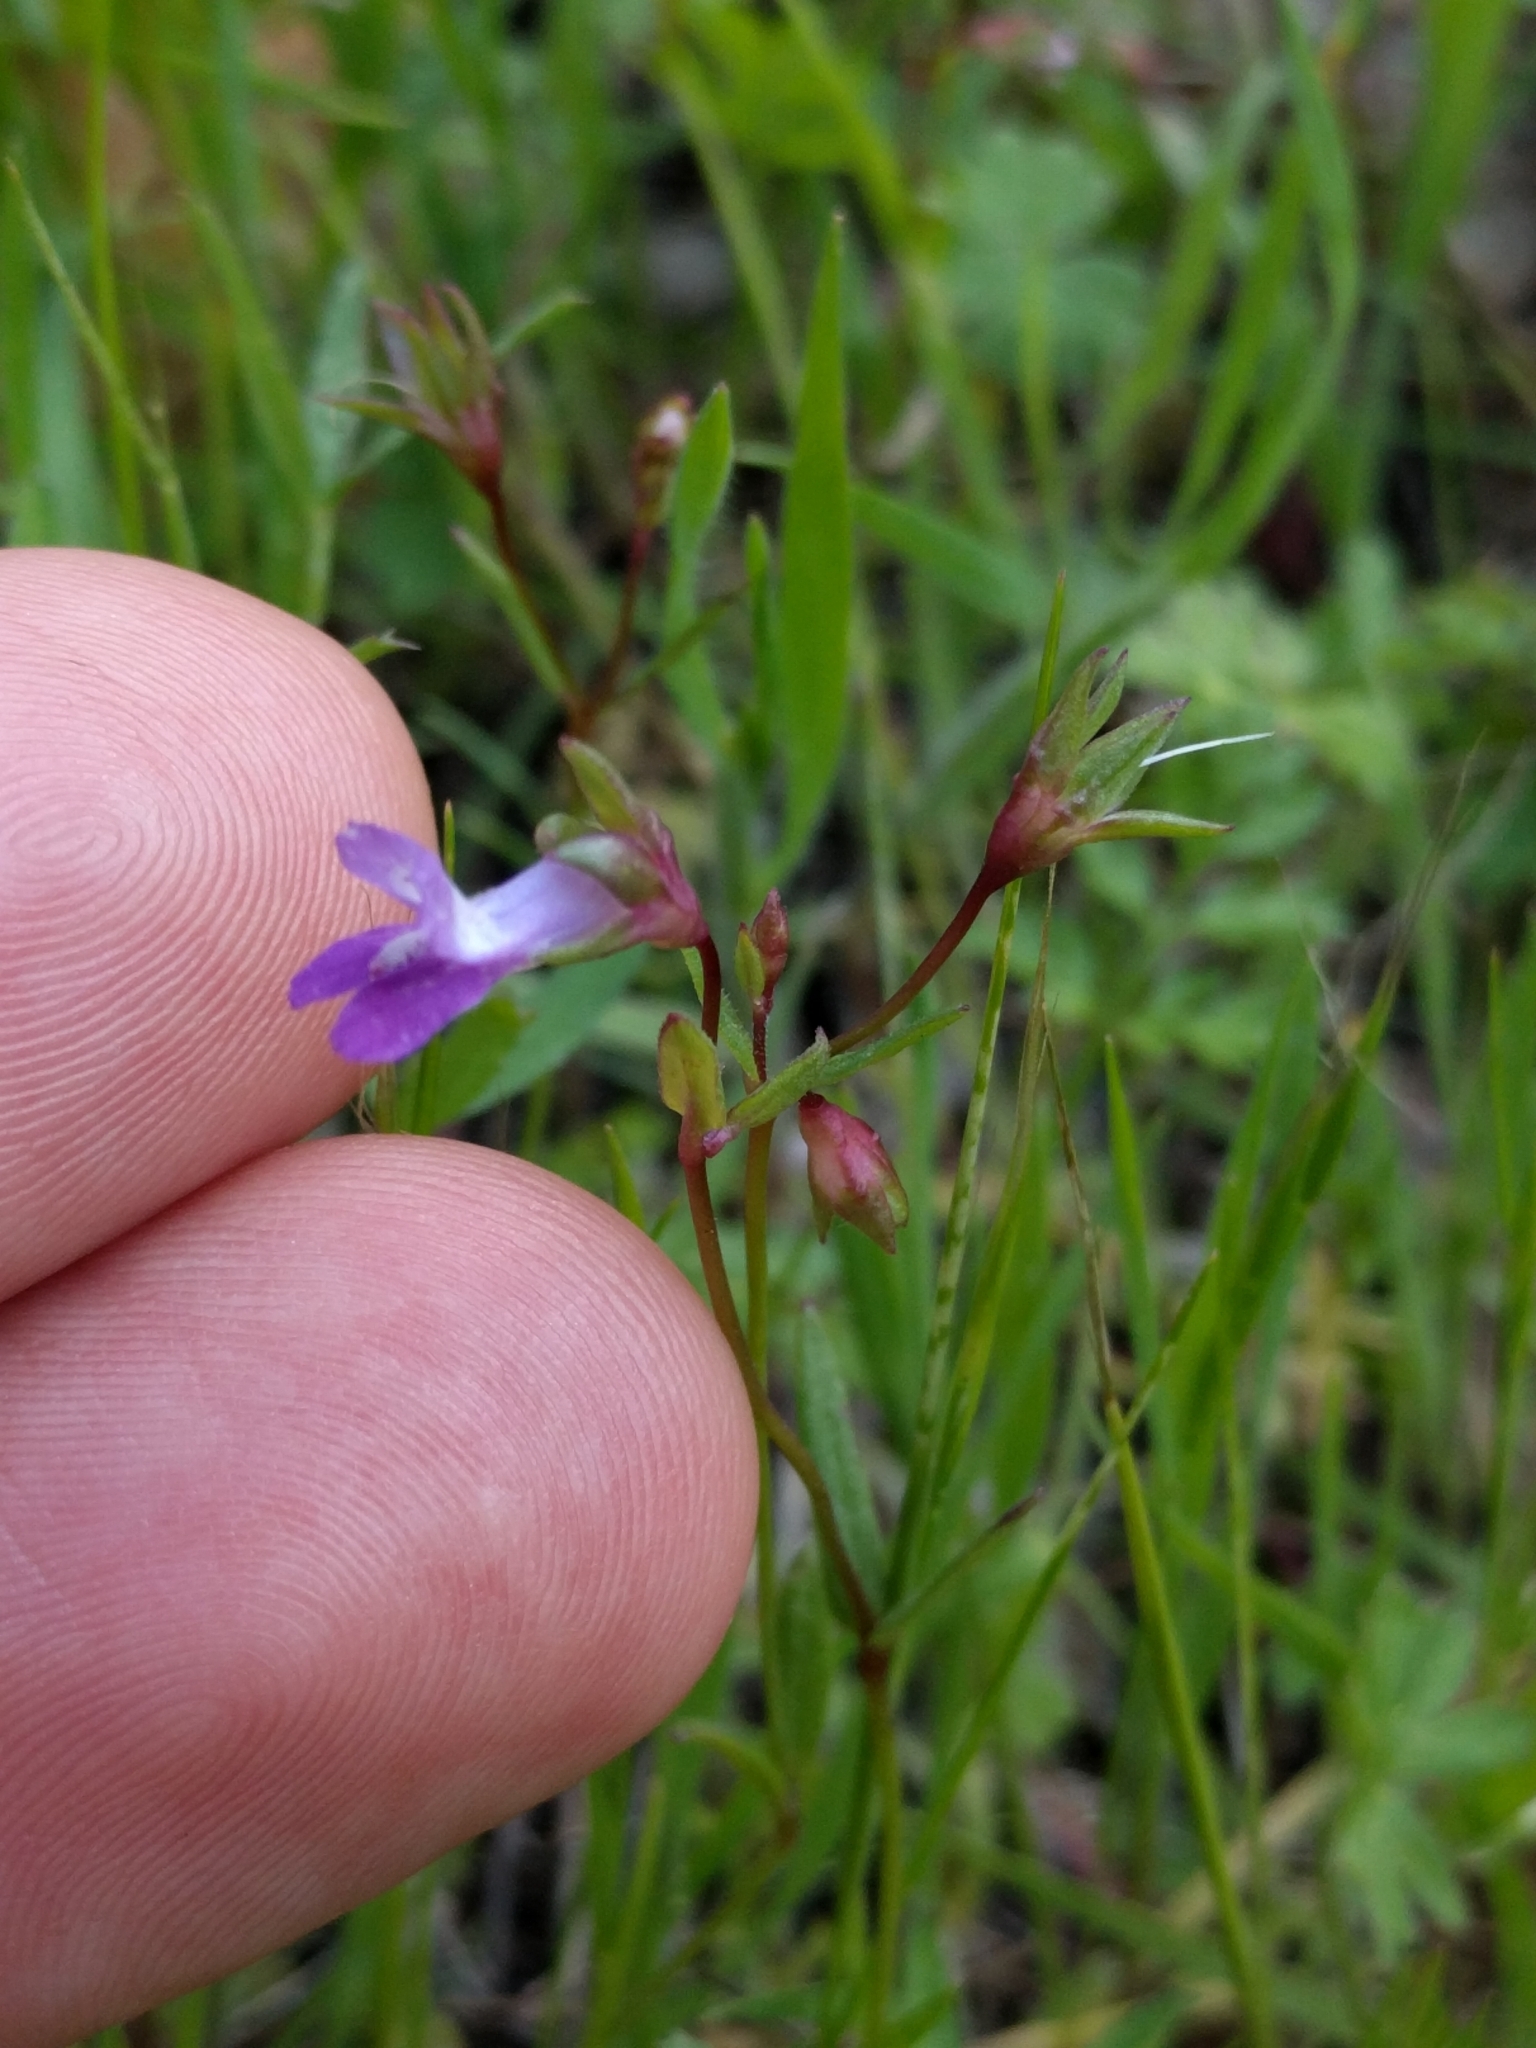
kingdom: Plantae
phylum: Tracheophyta
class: Magnoliopsida
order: Lamiales
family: Plantaginaceae
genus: Collinsia
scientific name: Collinsia sparsiflora
